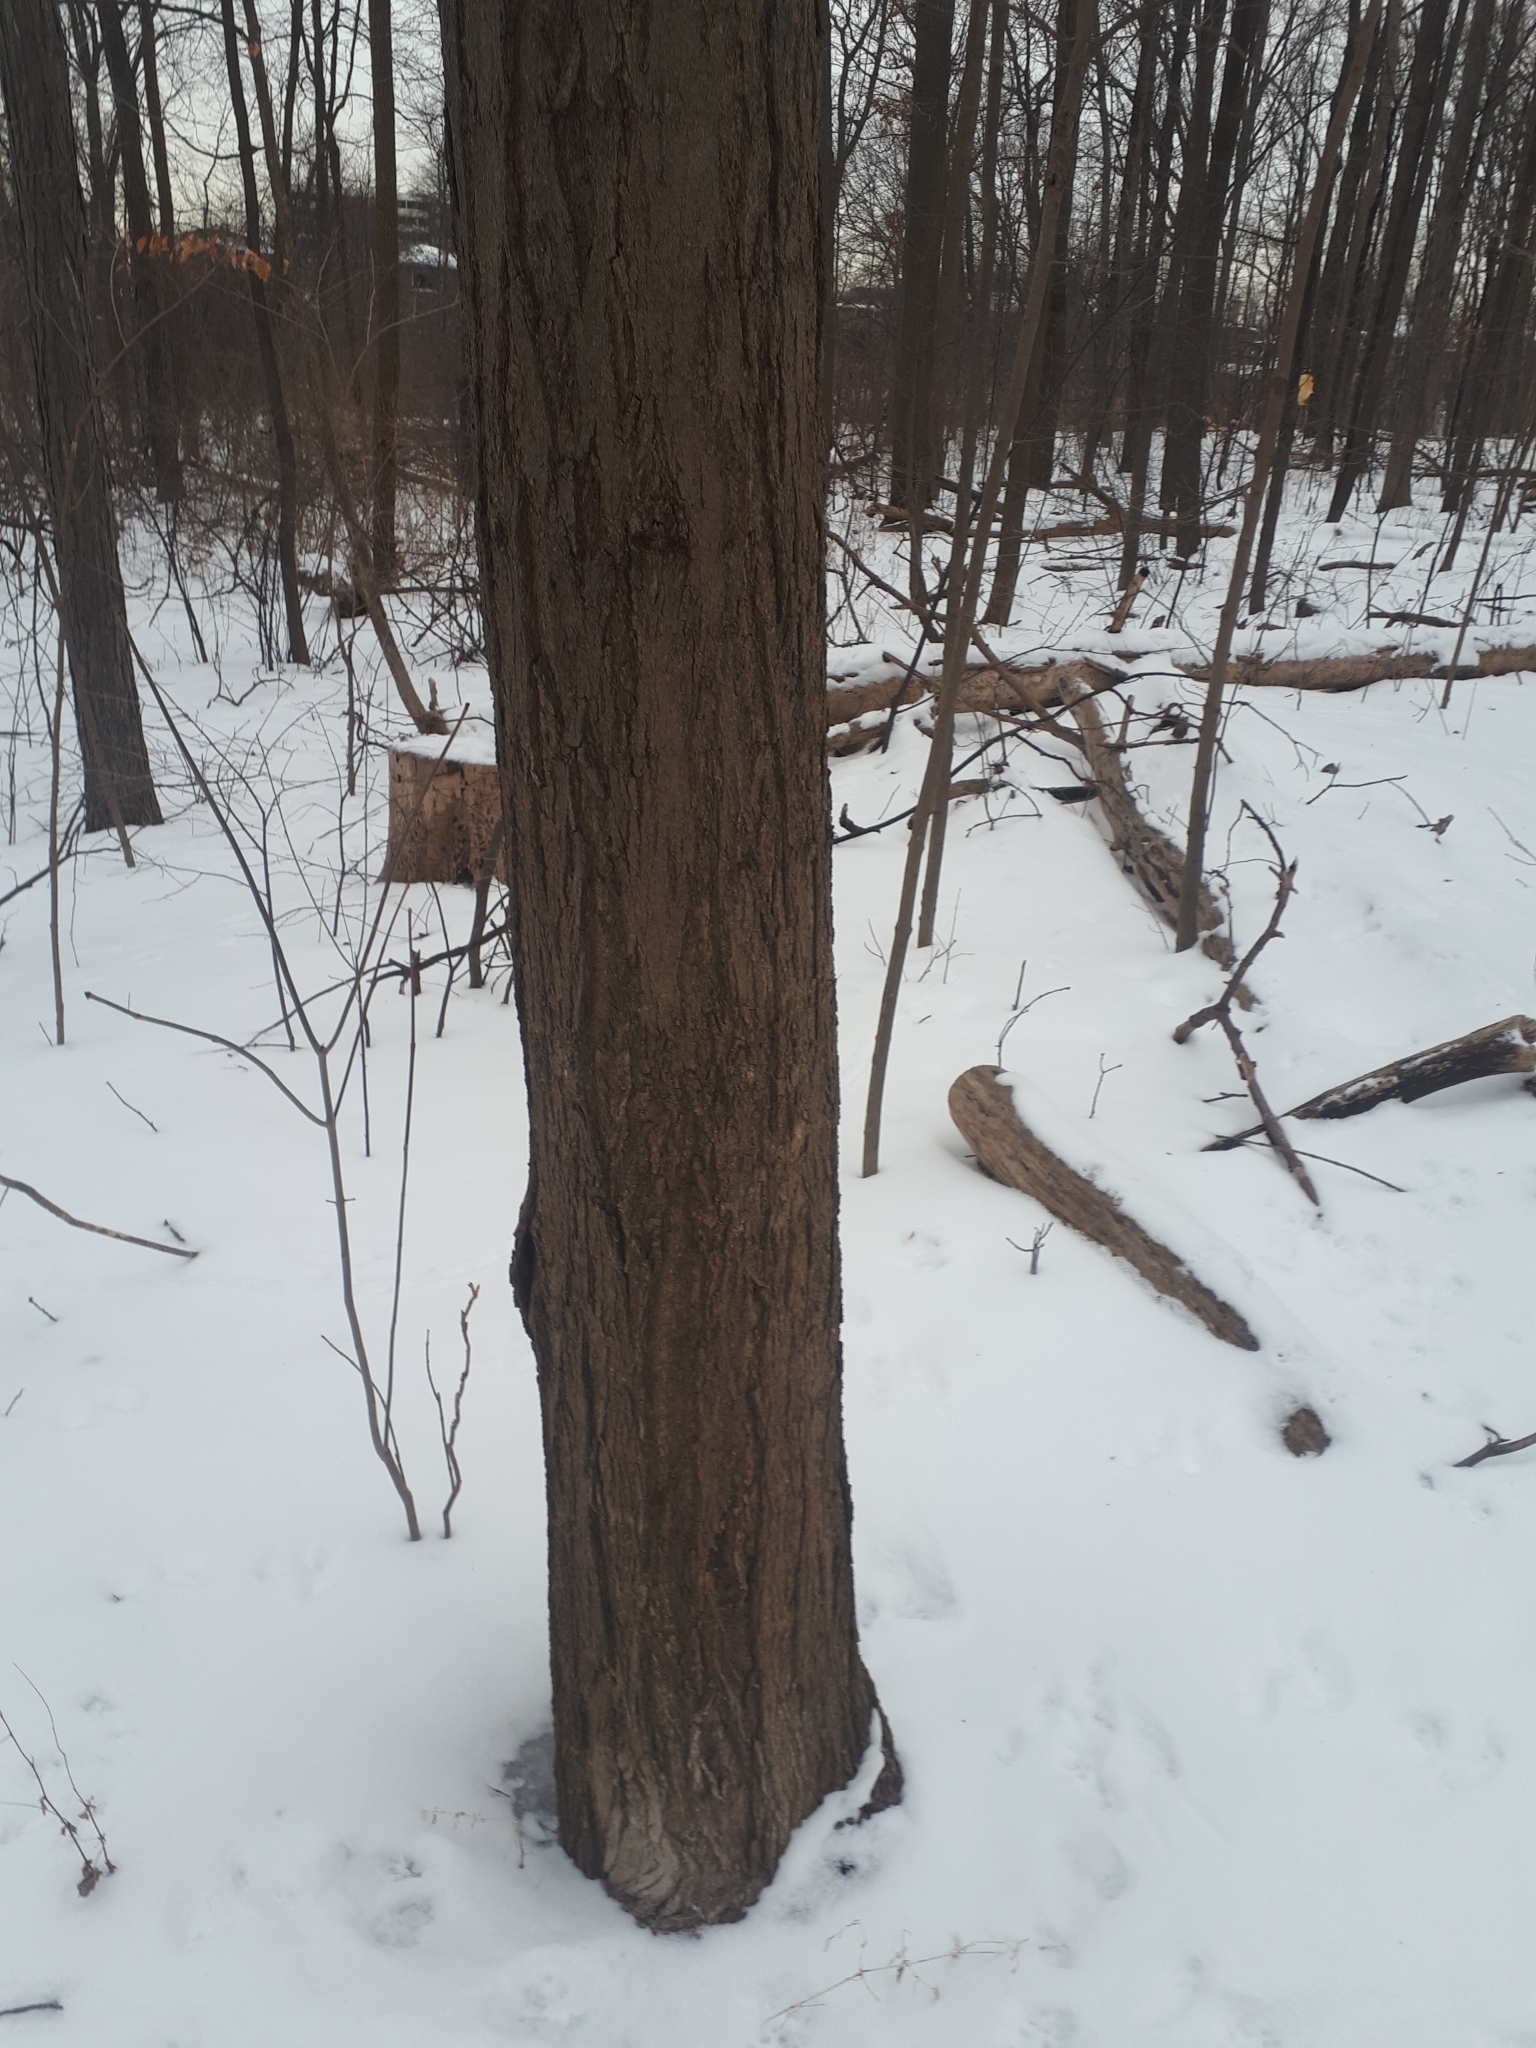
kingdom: Plantae
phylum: Tracheophyta
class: Magnoliopsida
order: Sapindales
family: Sapindaceae
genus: Acer
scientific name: Acer saccharum
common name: Sugar maple
